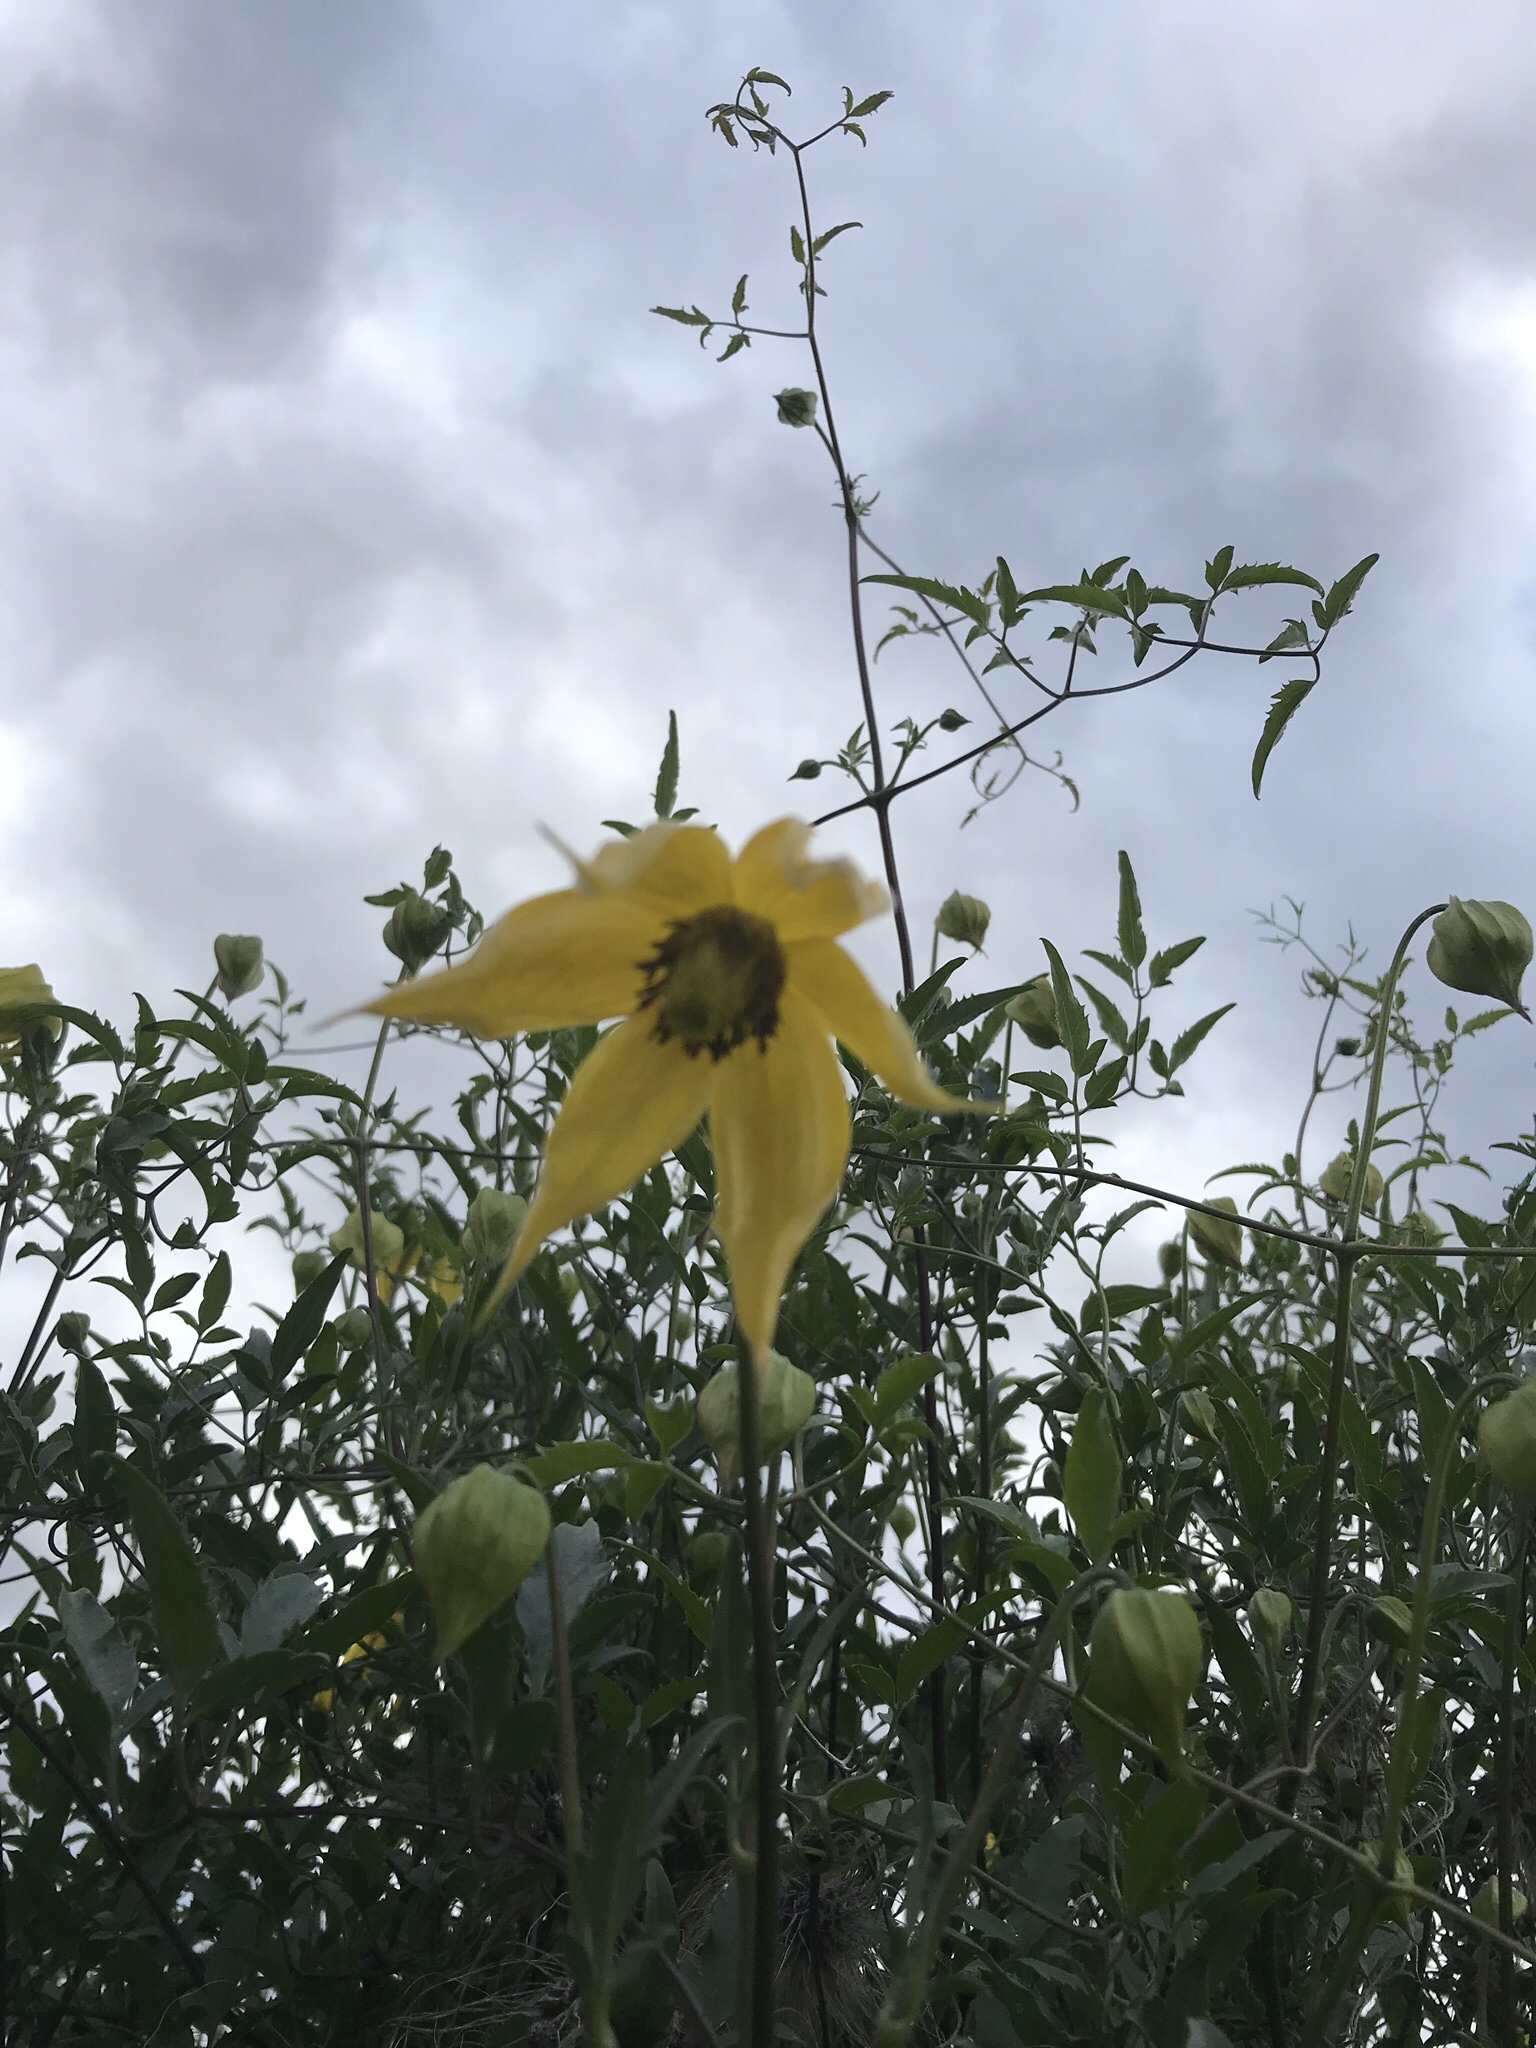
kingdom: Plantae
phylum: Tracheophyta
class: Magnoliopsida
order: Ranunculales
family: Ranunculaceae
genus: Clematis
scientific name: Clematis tangutica
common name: Orange-peel clematis
